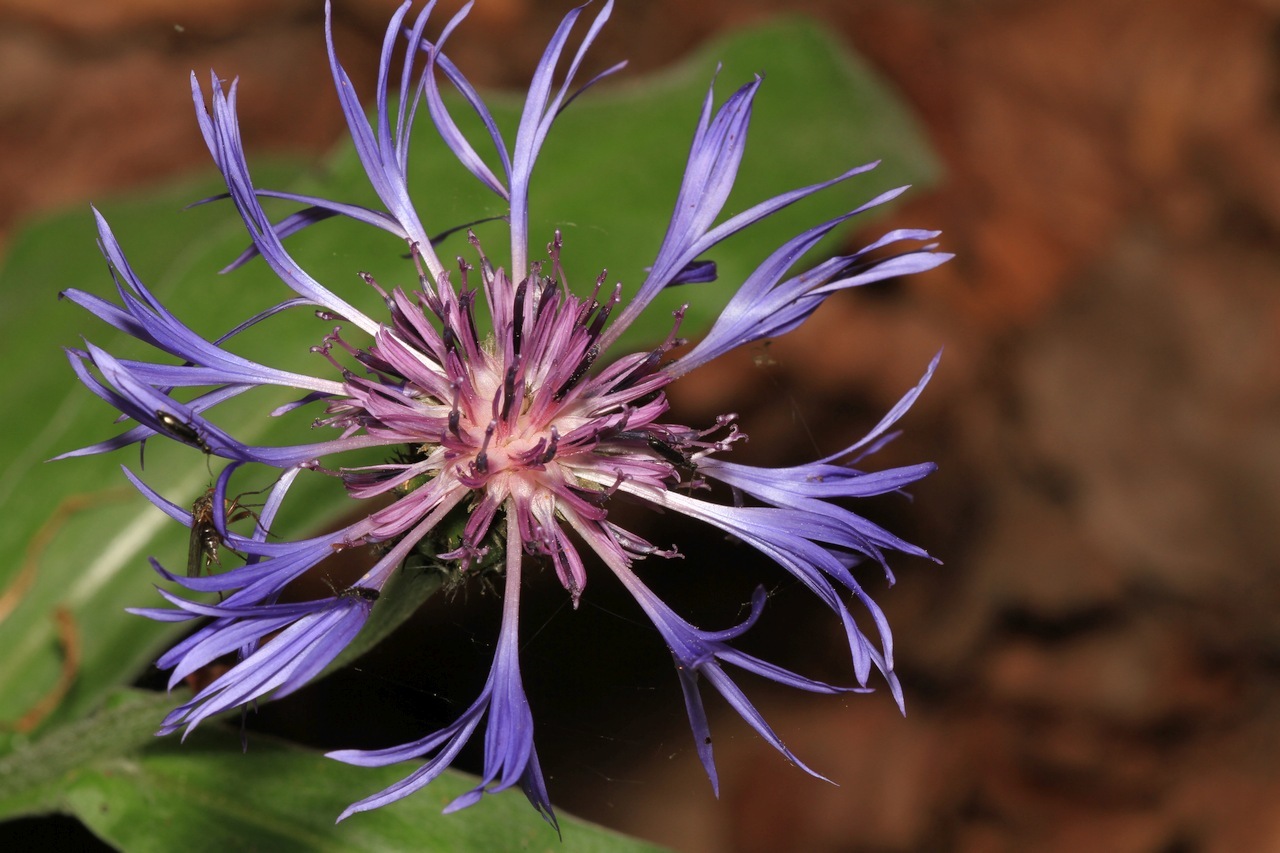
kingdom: Plantae
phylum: Tracheophyta
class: Magnoliopsida
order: Asterales
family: Asteraceae
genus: Centaurea
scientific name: Centaurea montana
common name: Perennial cornflower
